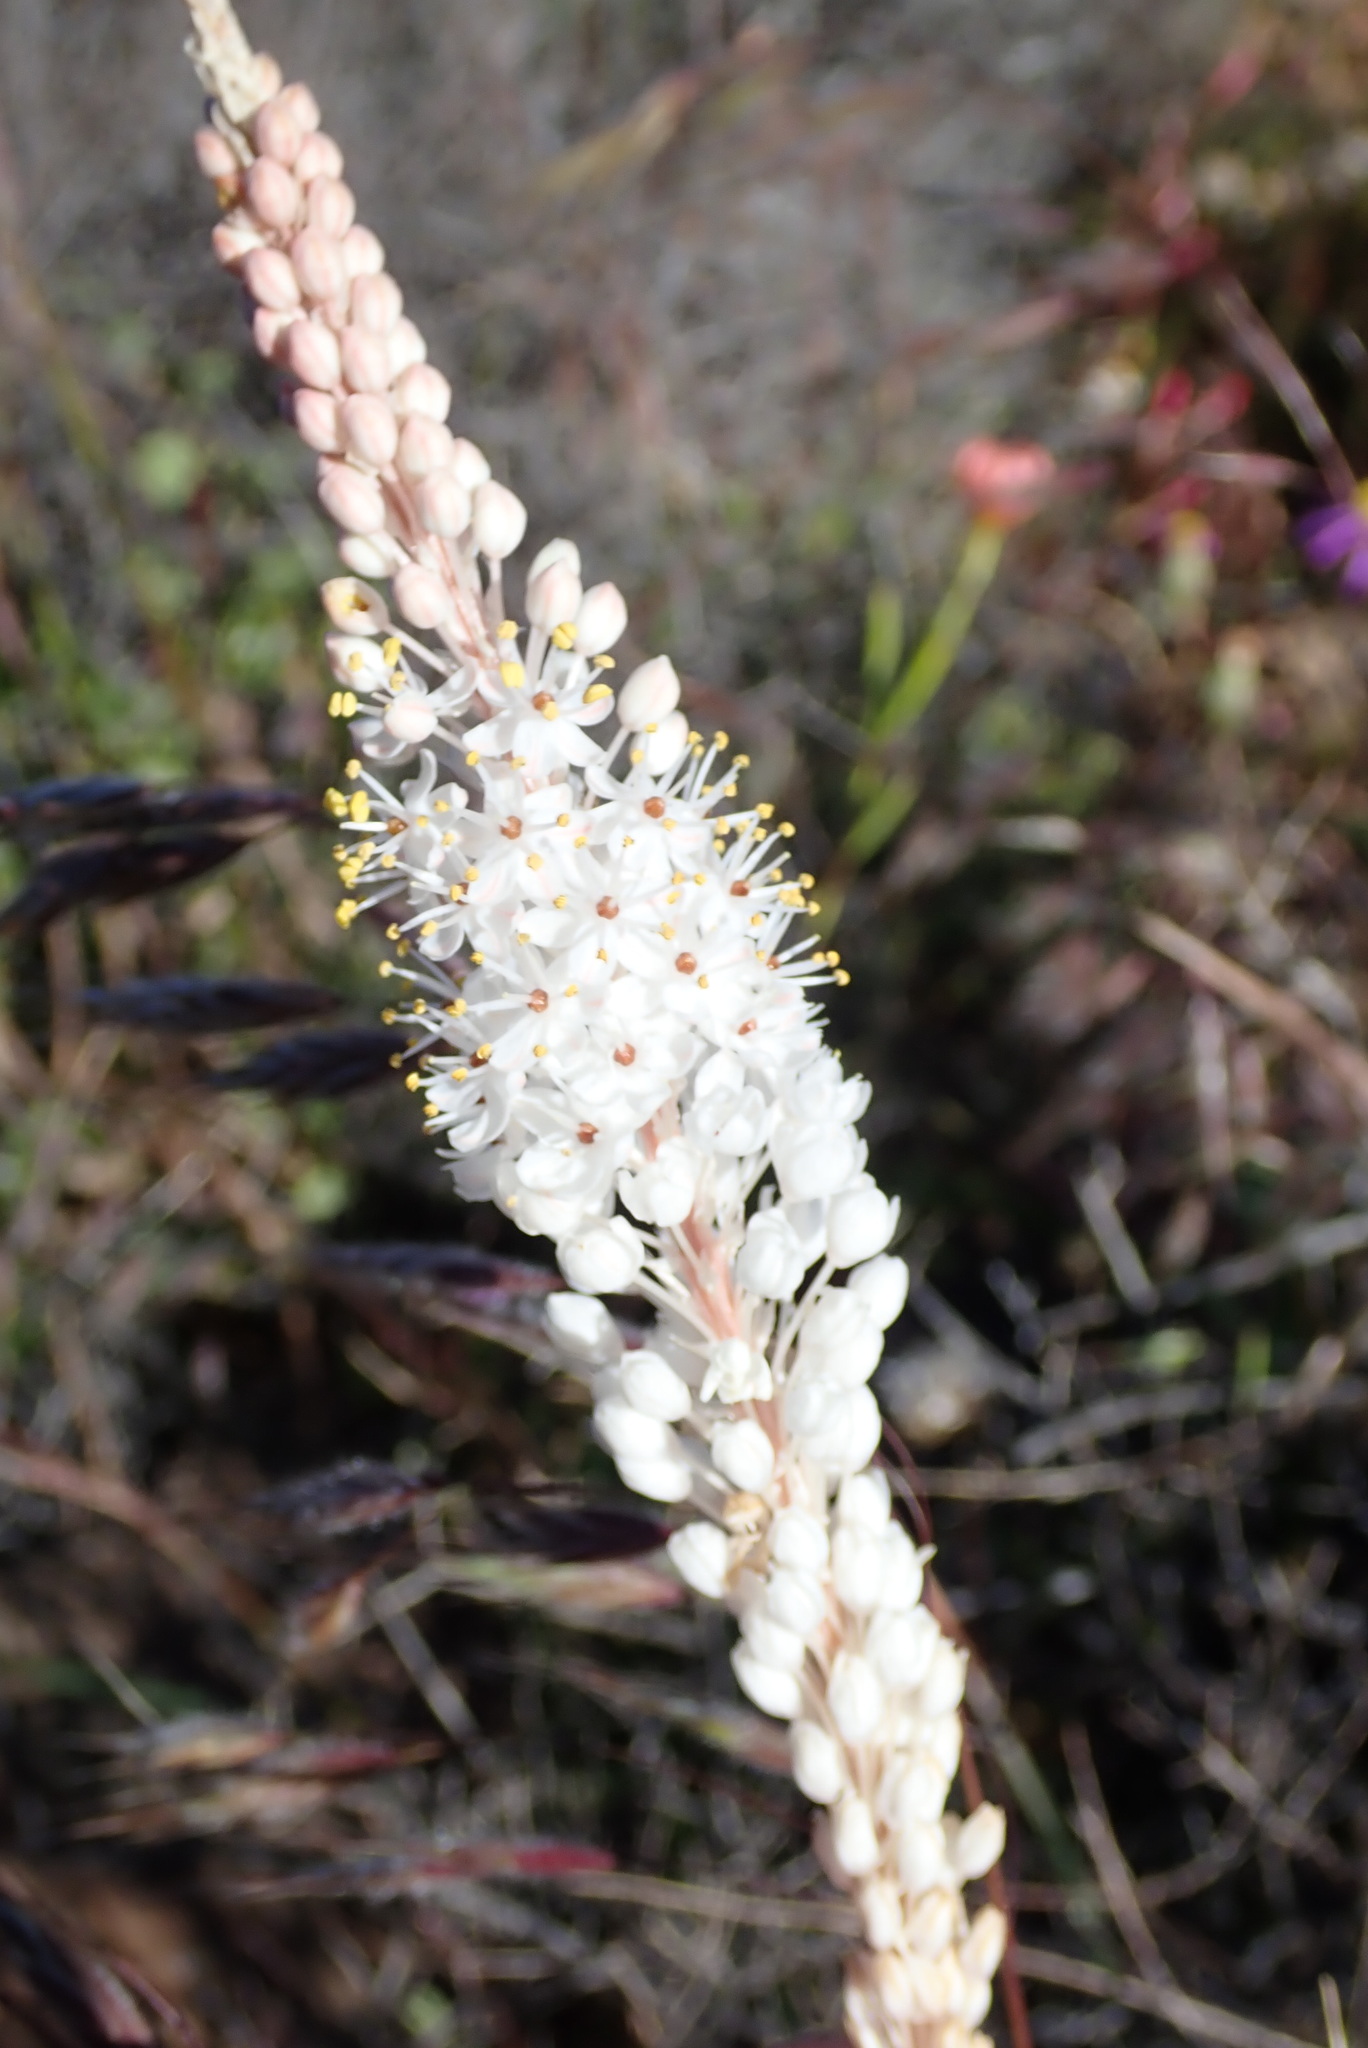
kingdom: Plantae
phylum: Tracheophyta
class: Liliopsida
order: Asparagales
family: Asphodelaceae
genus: Bulbinella
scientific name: Bulbinella elegans
